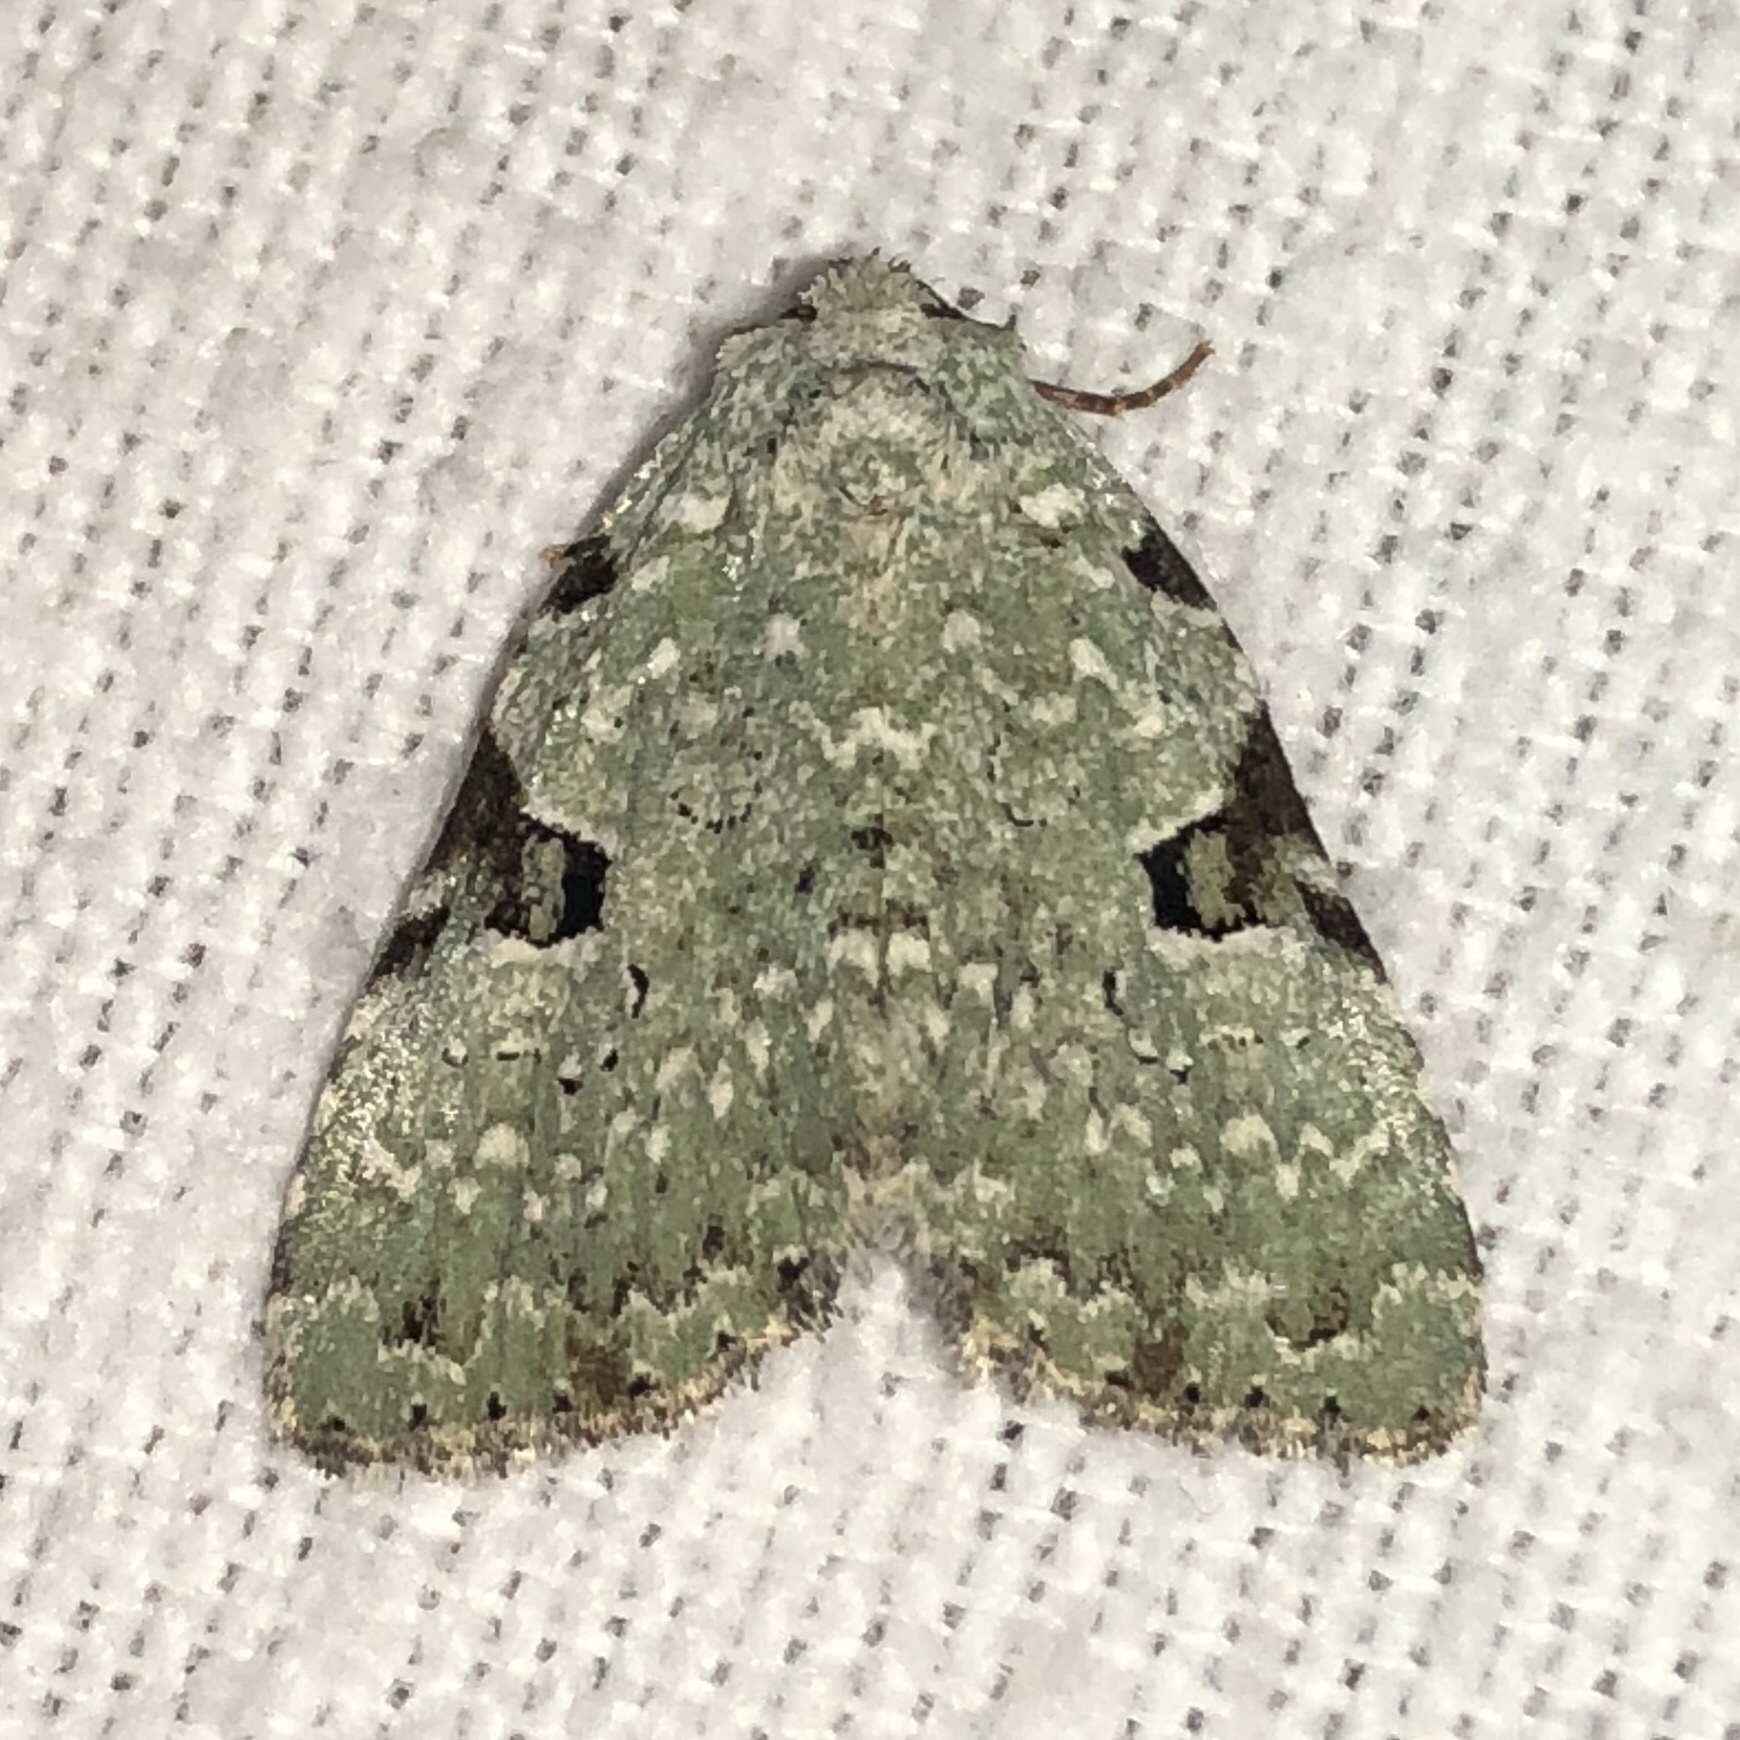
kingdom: Animalia
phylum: Arthropoda
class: Insecta
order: Lepidoptera
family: Noctuidae
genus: Leuconycta
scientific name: Leuconycta diphteroides
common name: Green leuconycta moth
